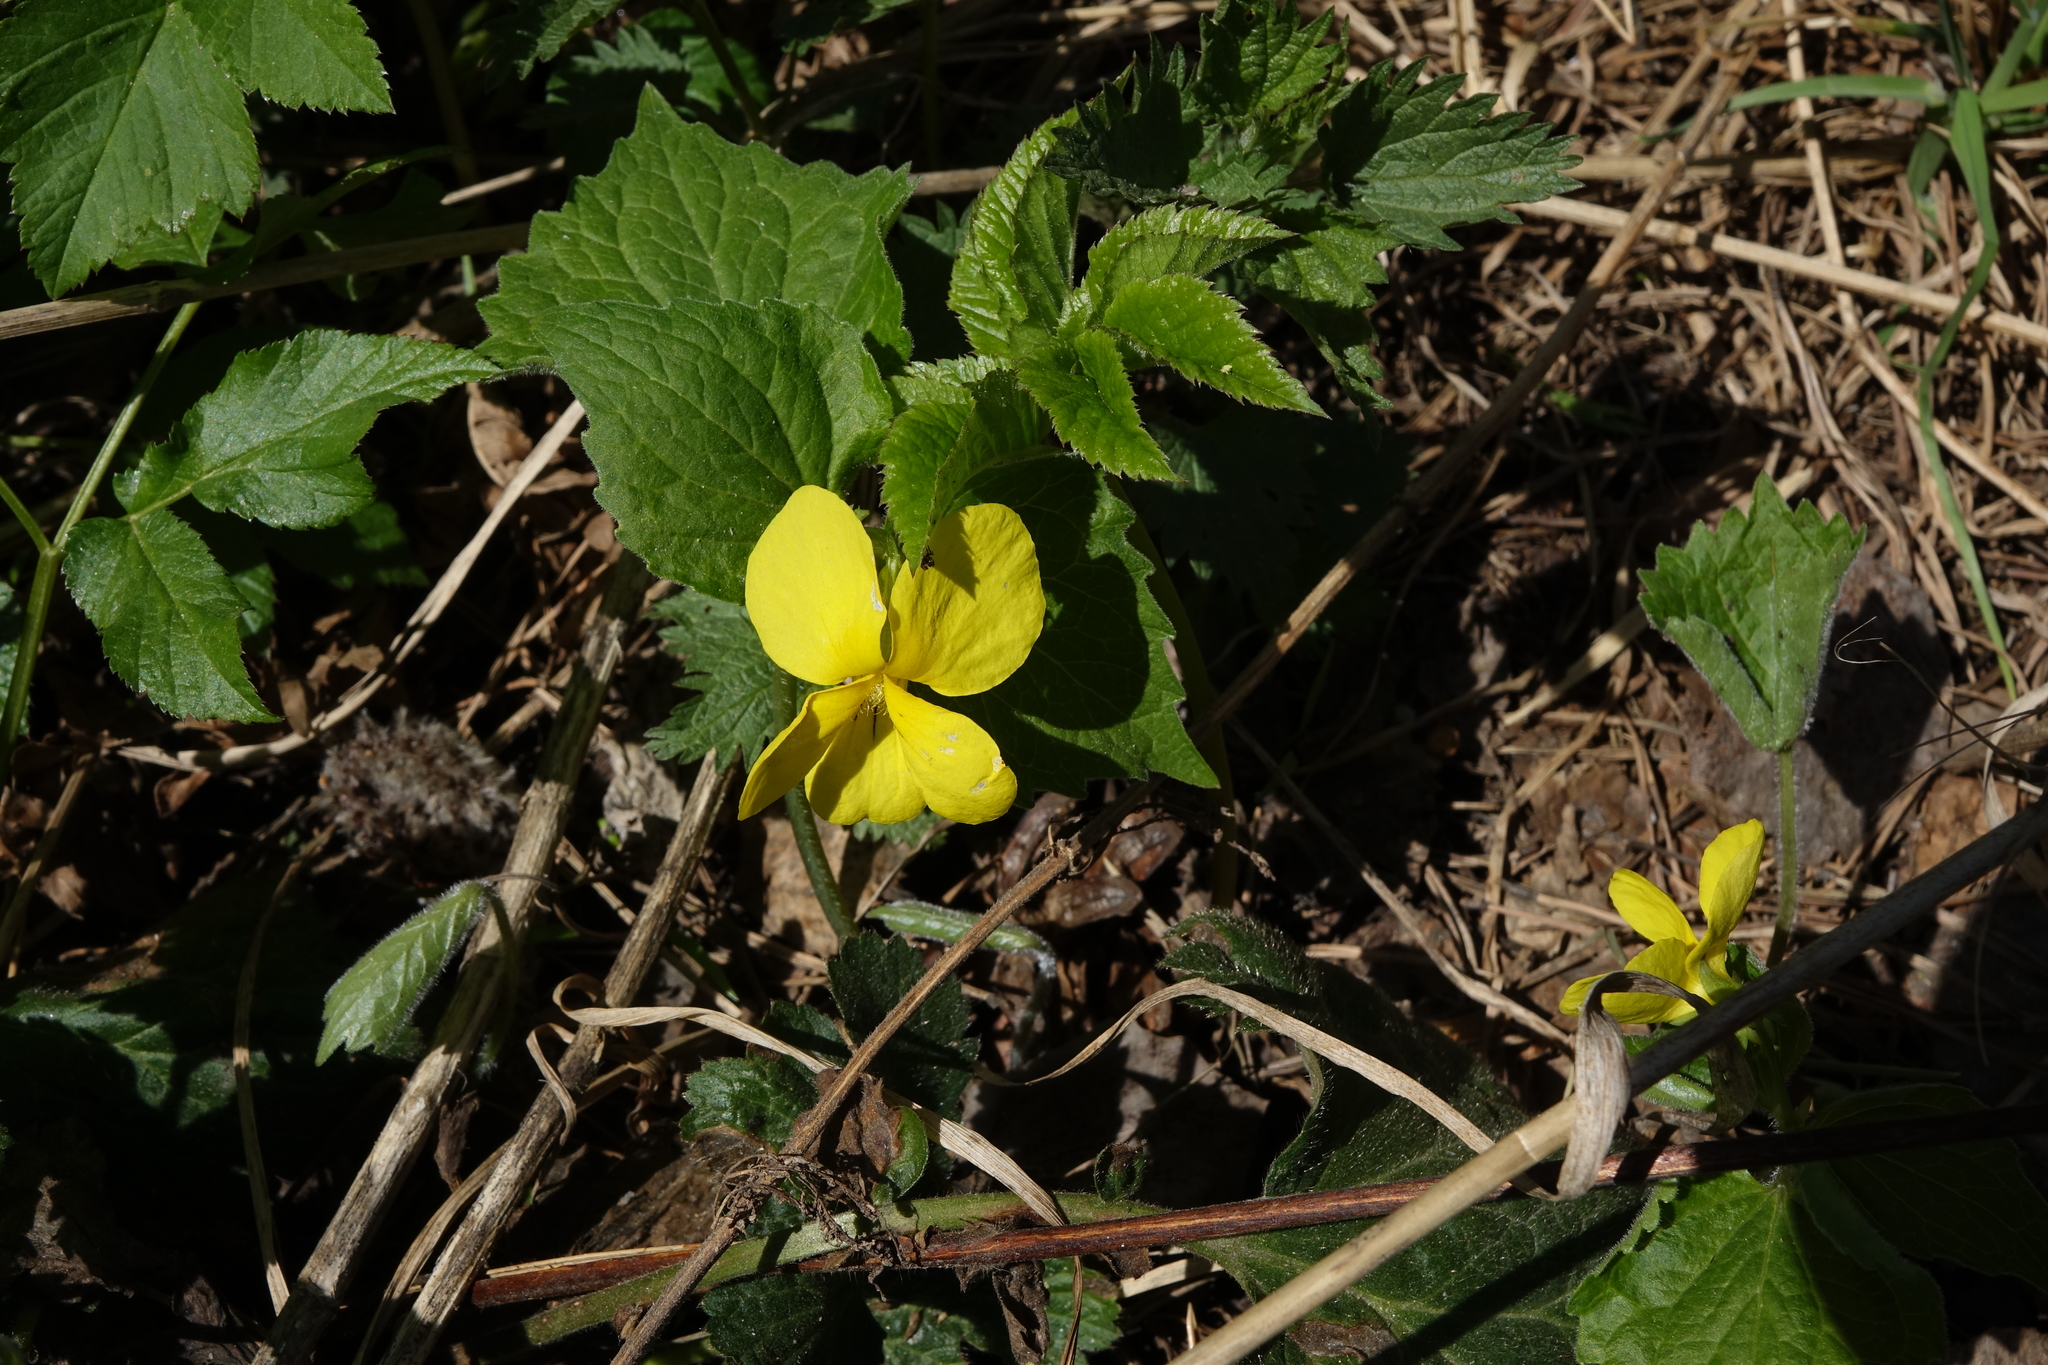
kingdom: Plantae
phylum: Tracheophyta
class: Magnoliopsida
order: Malpighiales
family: Violaceae
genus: Viola
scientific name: Viola uniflora
